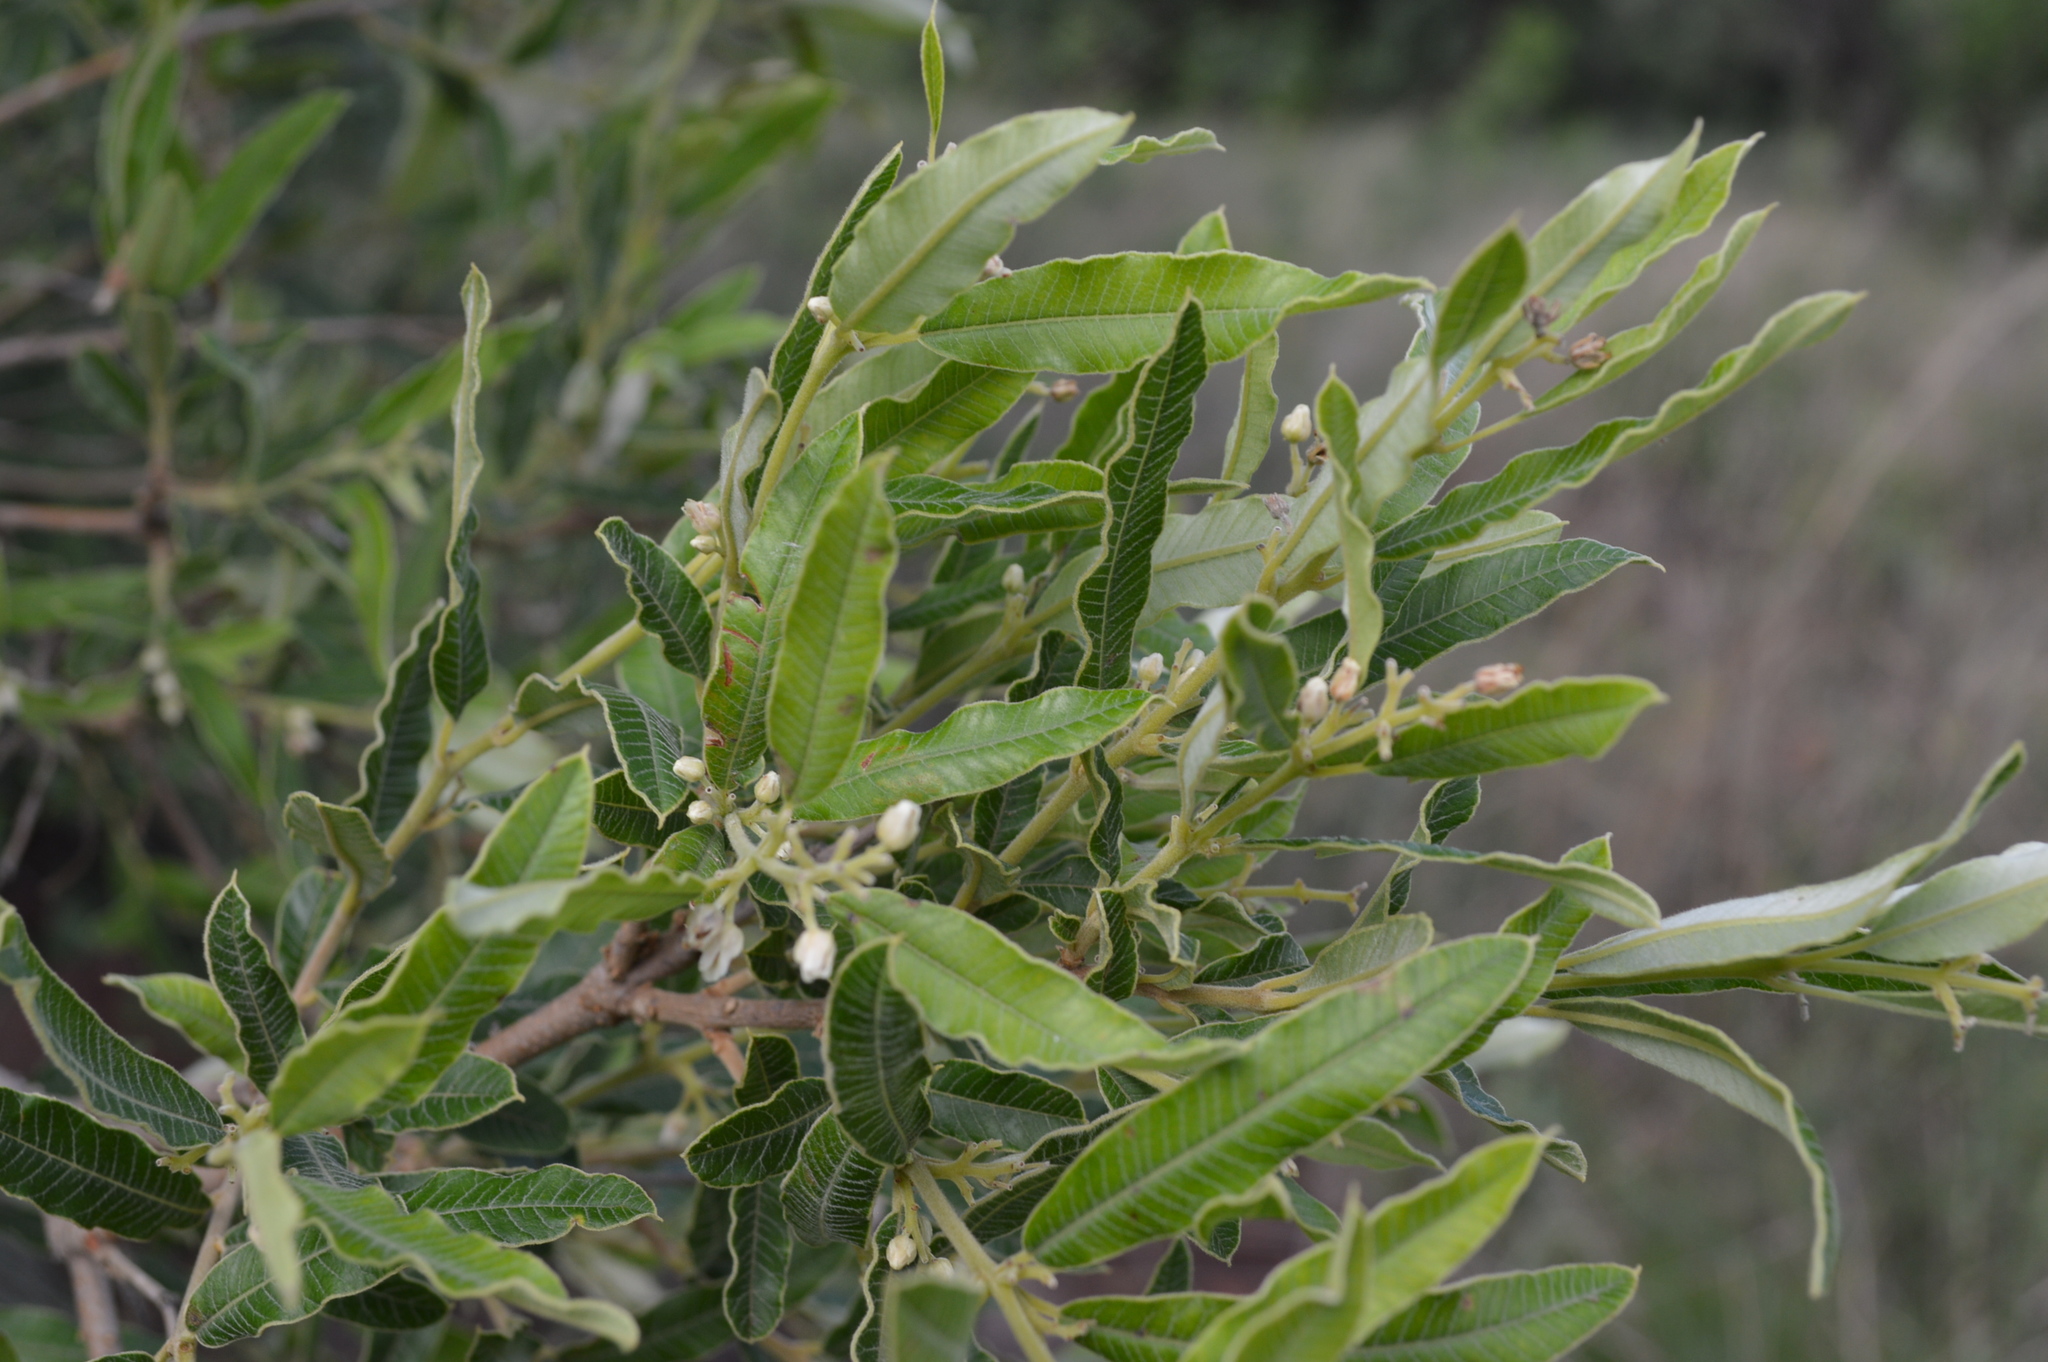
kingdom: Plantae
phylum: Tracheophyta
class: Magnoliopsida
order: Sapindales
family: Anacardiaceae
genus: Ozoroa
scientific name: Ozoroa paniculosa
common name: Bushveld ozoroa
